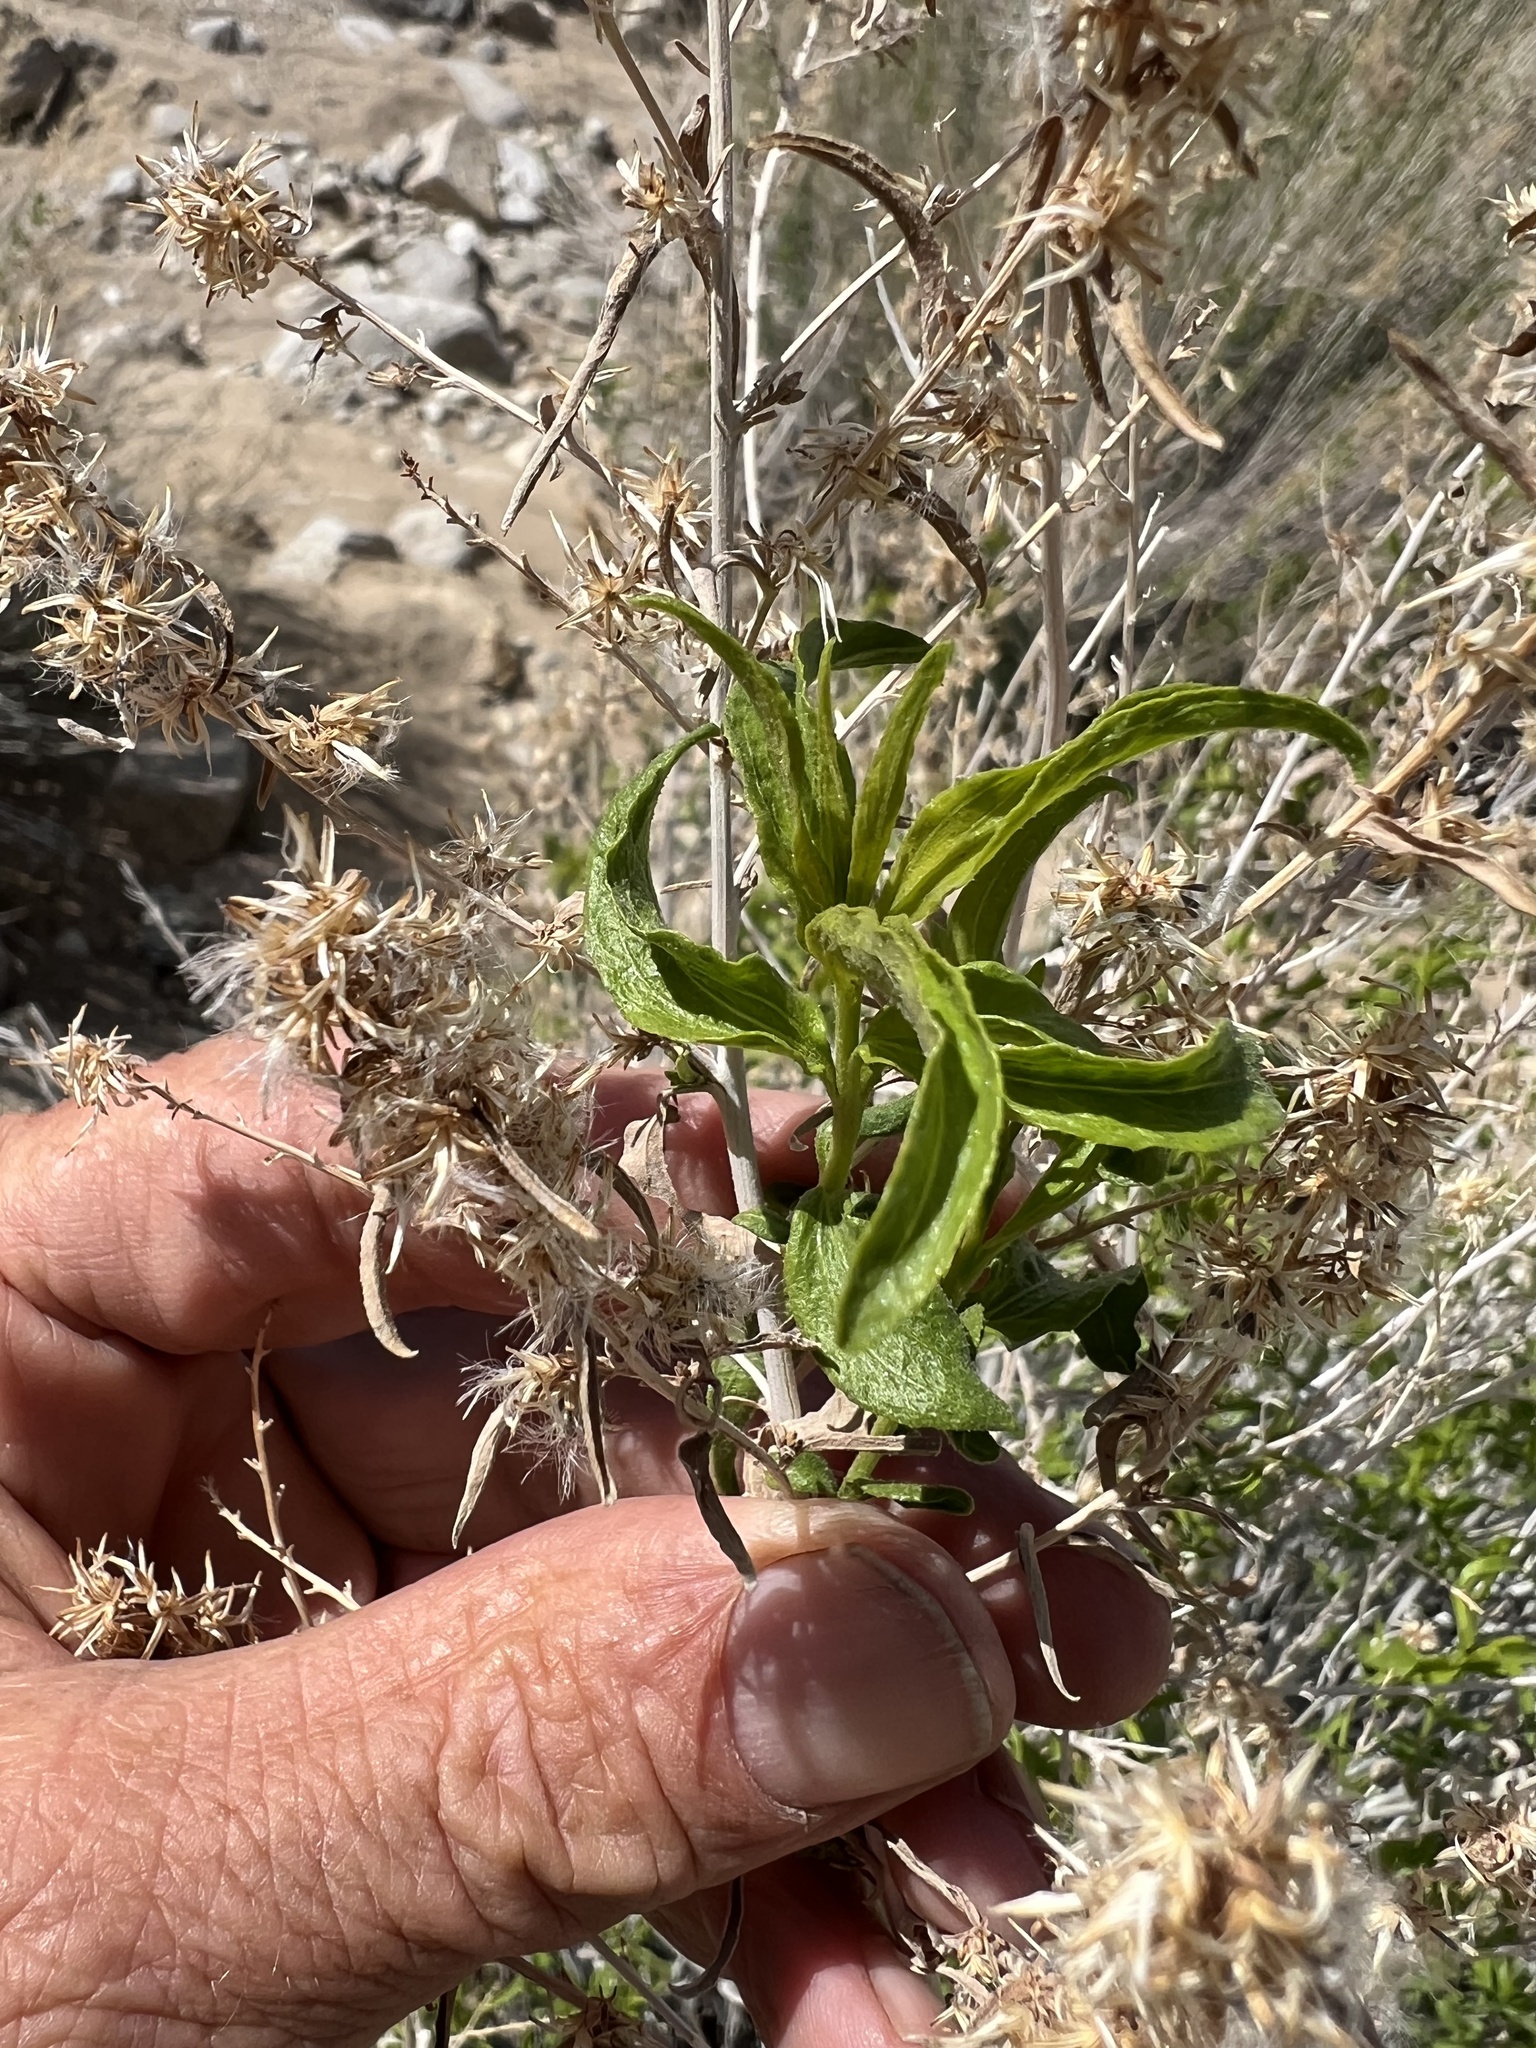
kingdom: Plantae
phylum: Tracheophyta
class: Magnoliopsida
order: Asterales
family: Asteraceae
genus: Brickellia
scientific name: Brickellia longifolia
